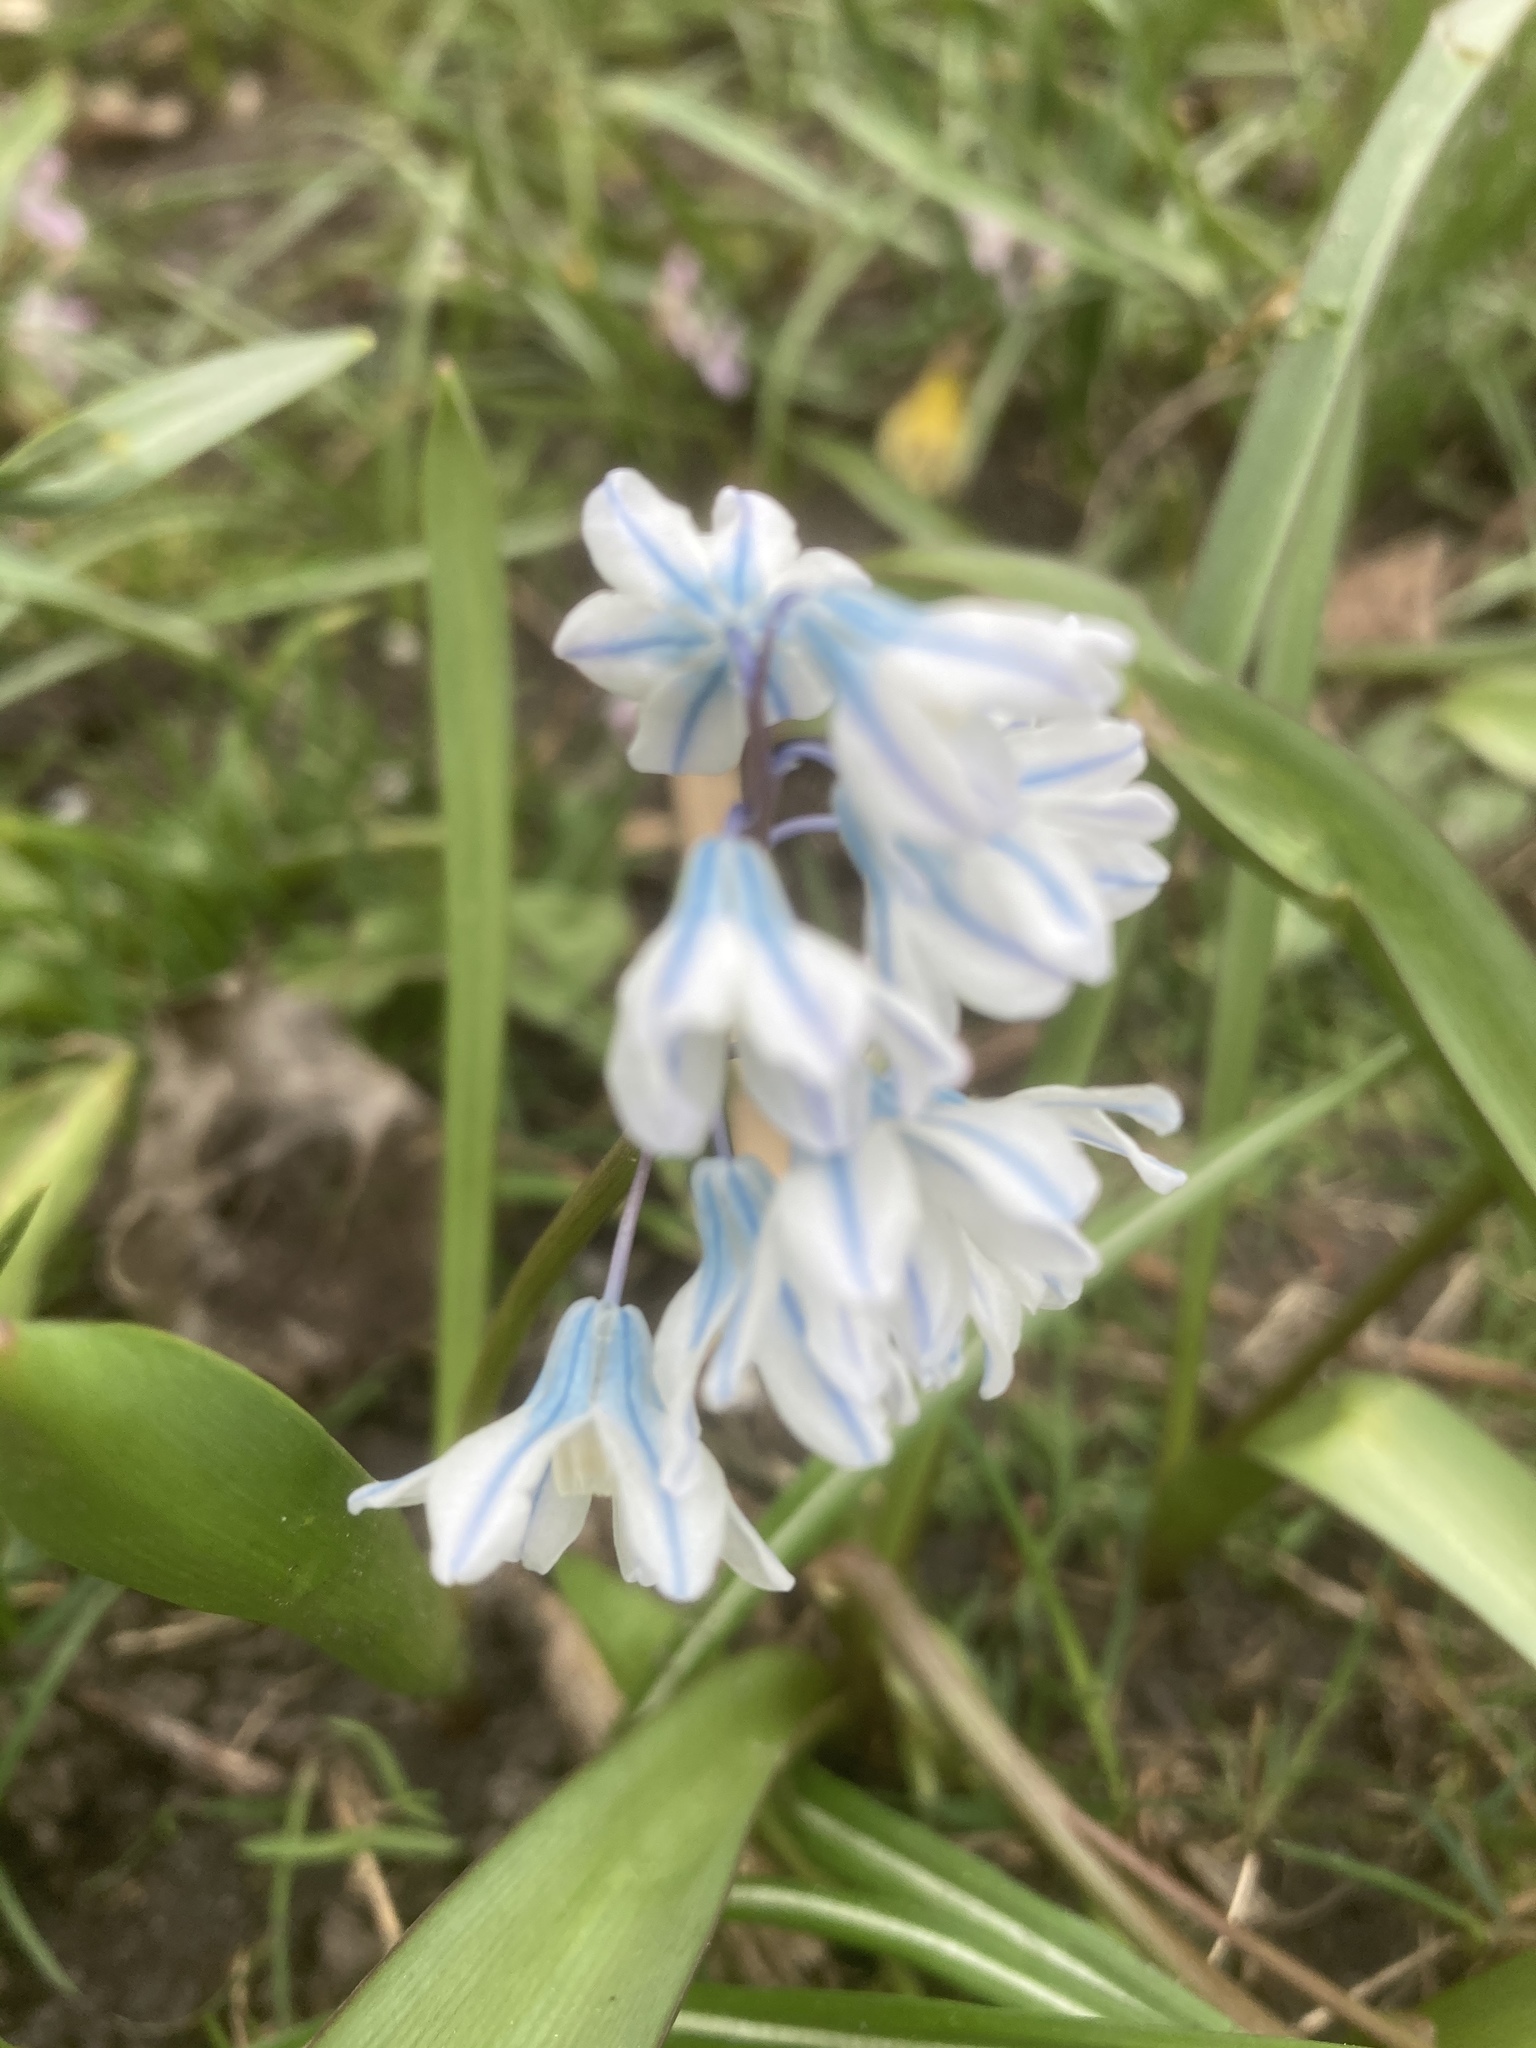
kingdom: Plantae
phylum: Tracheophyta
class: Liliopsida
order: Asparagales
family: Asparagaceae
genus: Puschkinia
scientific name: Puschkinia scilloides
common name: Striped squill
